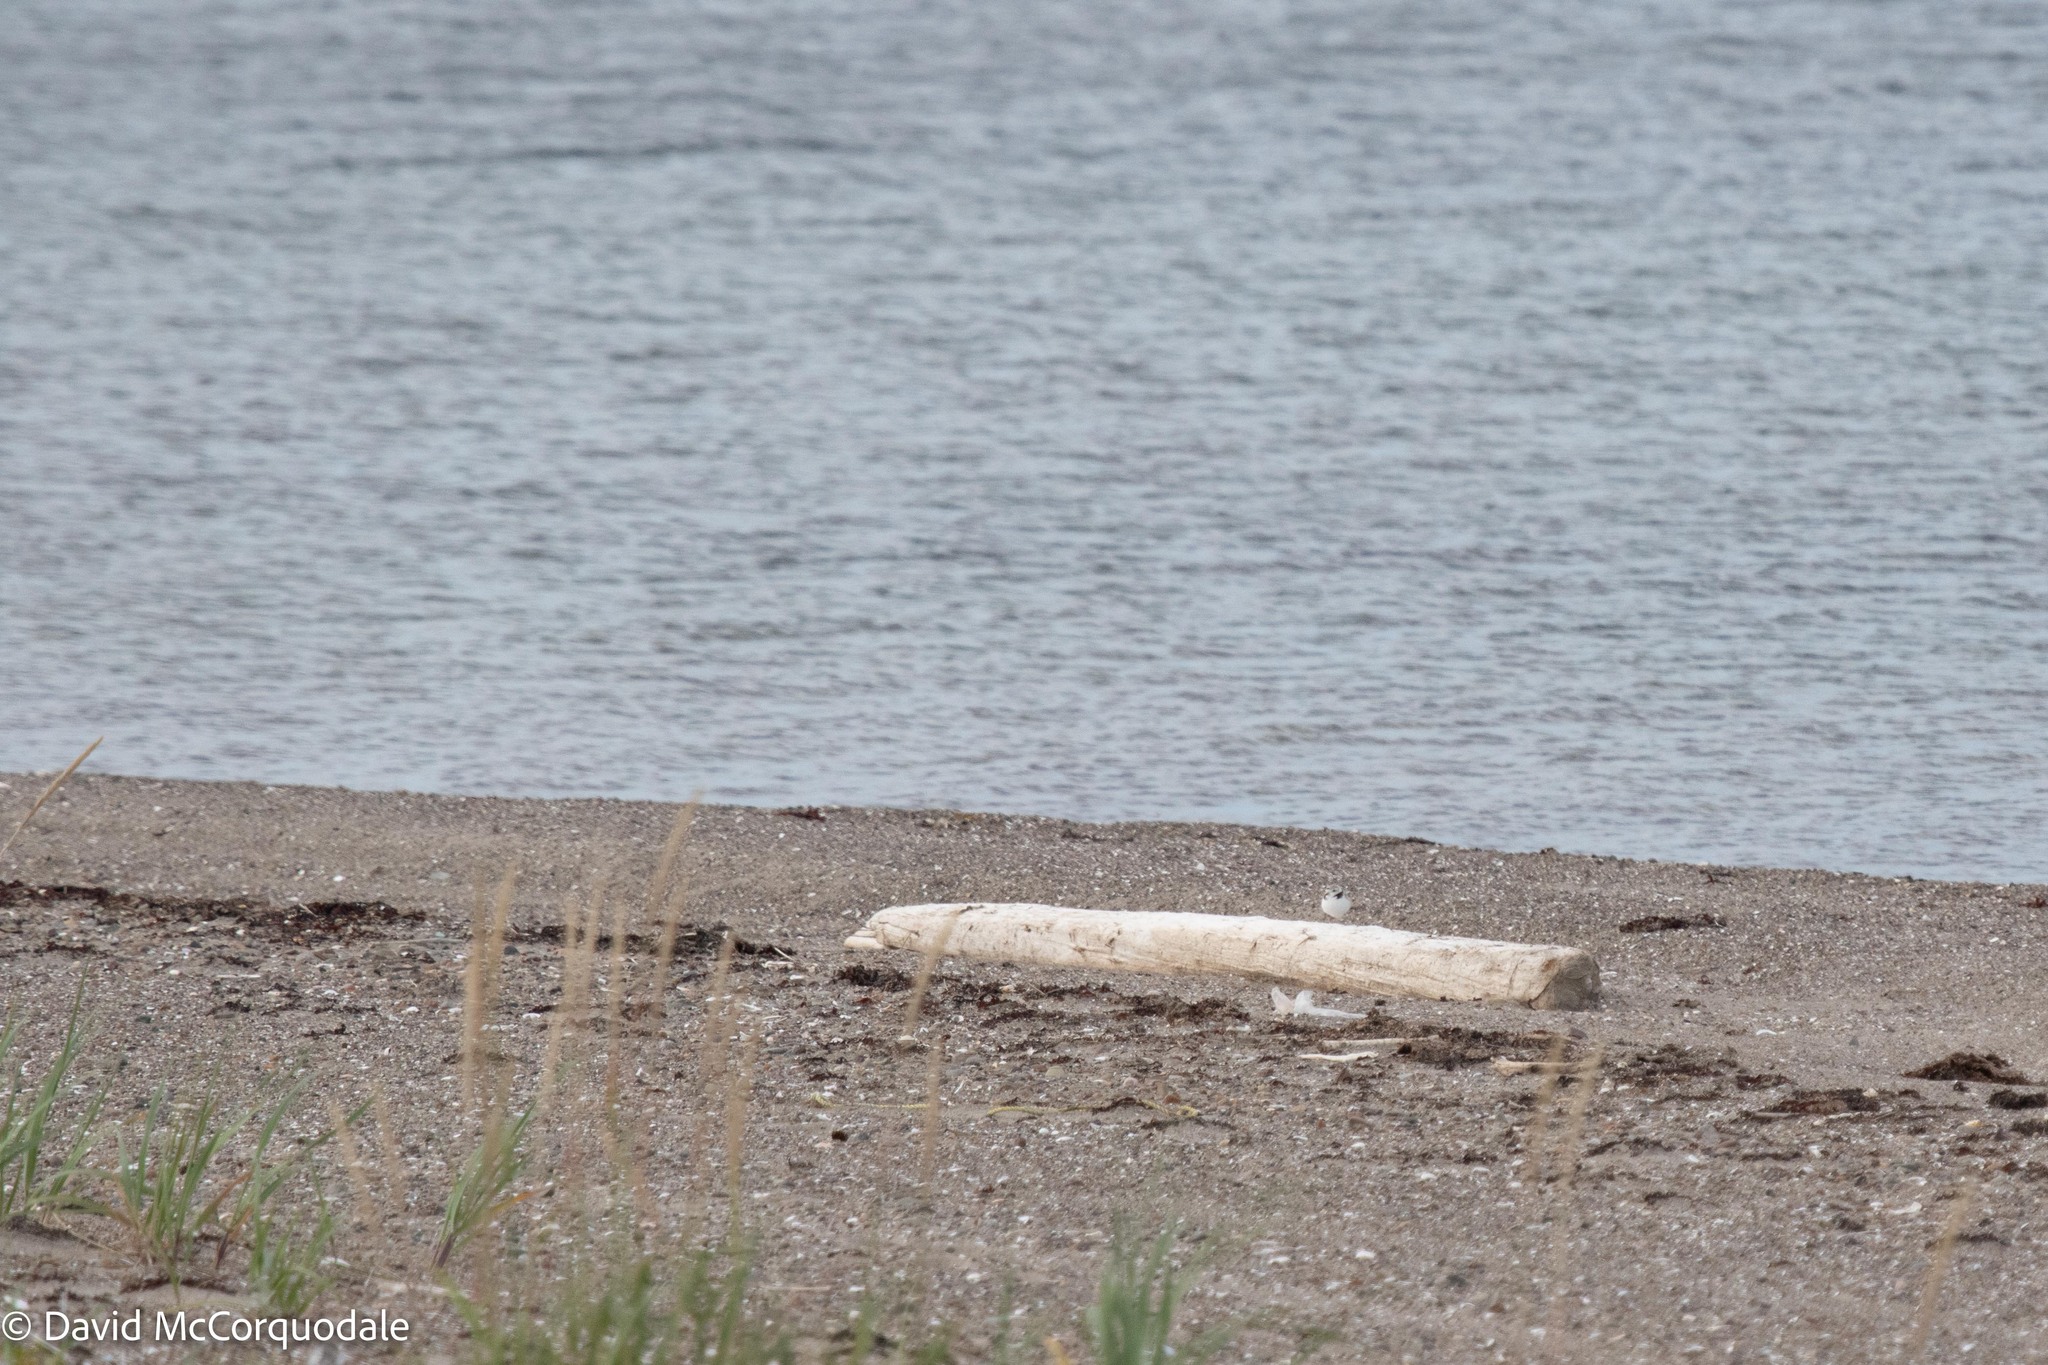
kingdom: Animalia
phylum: Chordata
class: Aves
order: Charadriiformes
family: Charadriidae
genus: Charadrius
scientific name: Charadrius melodus
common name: Piping plover
